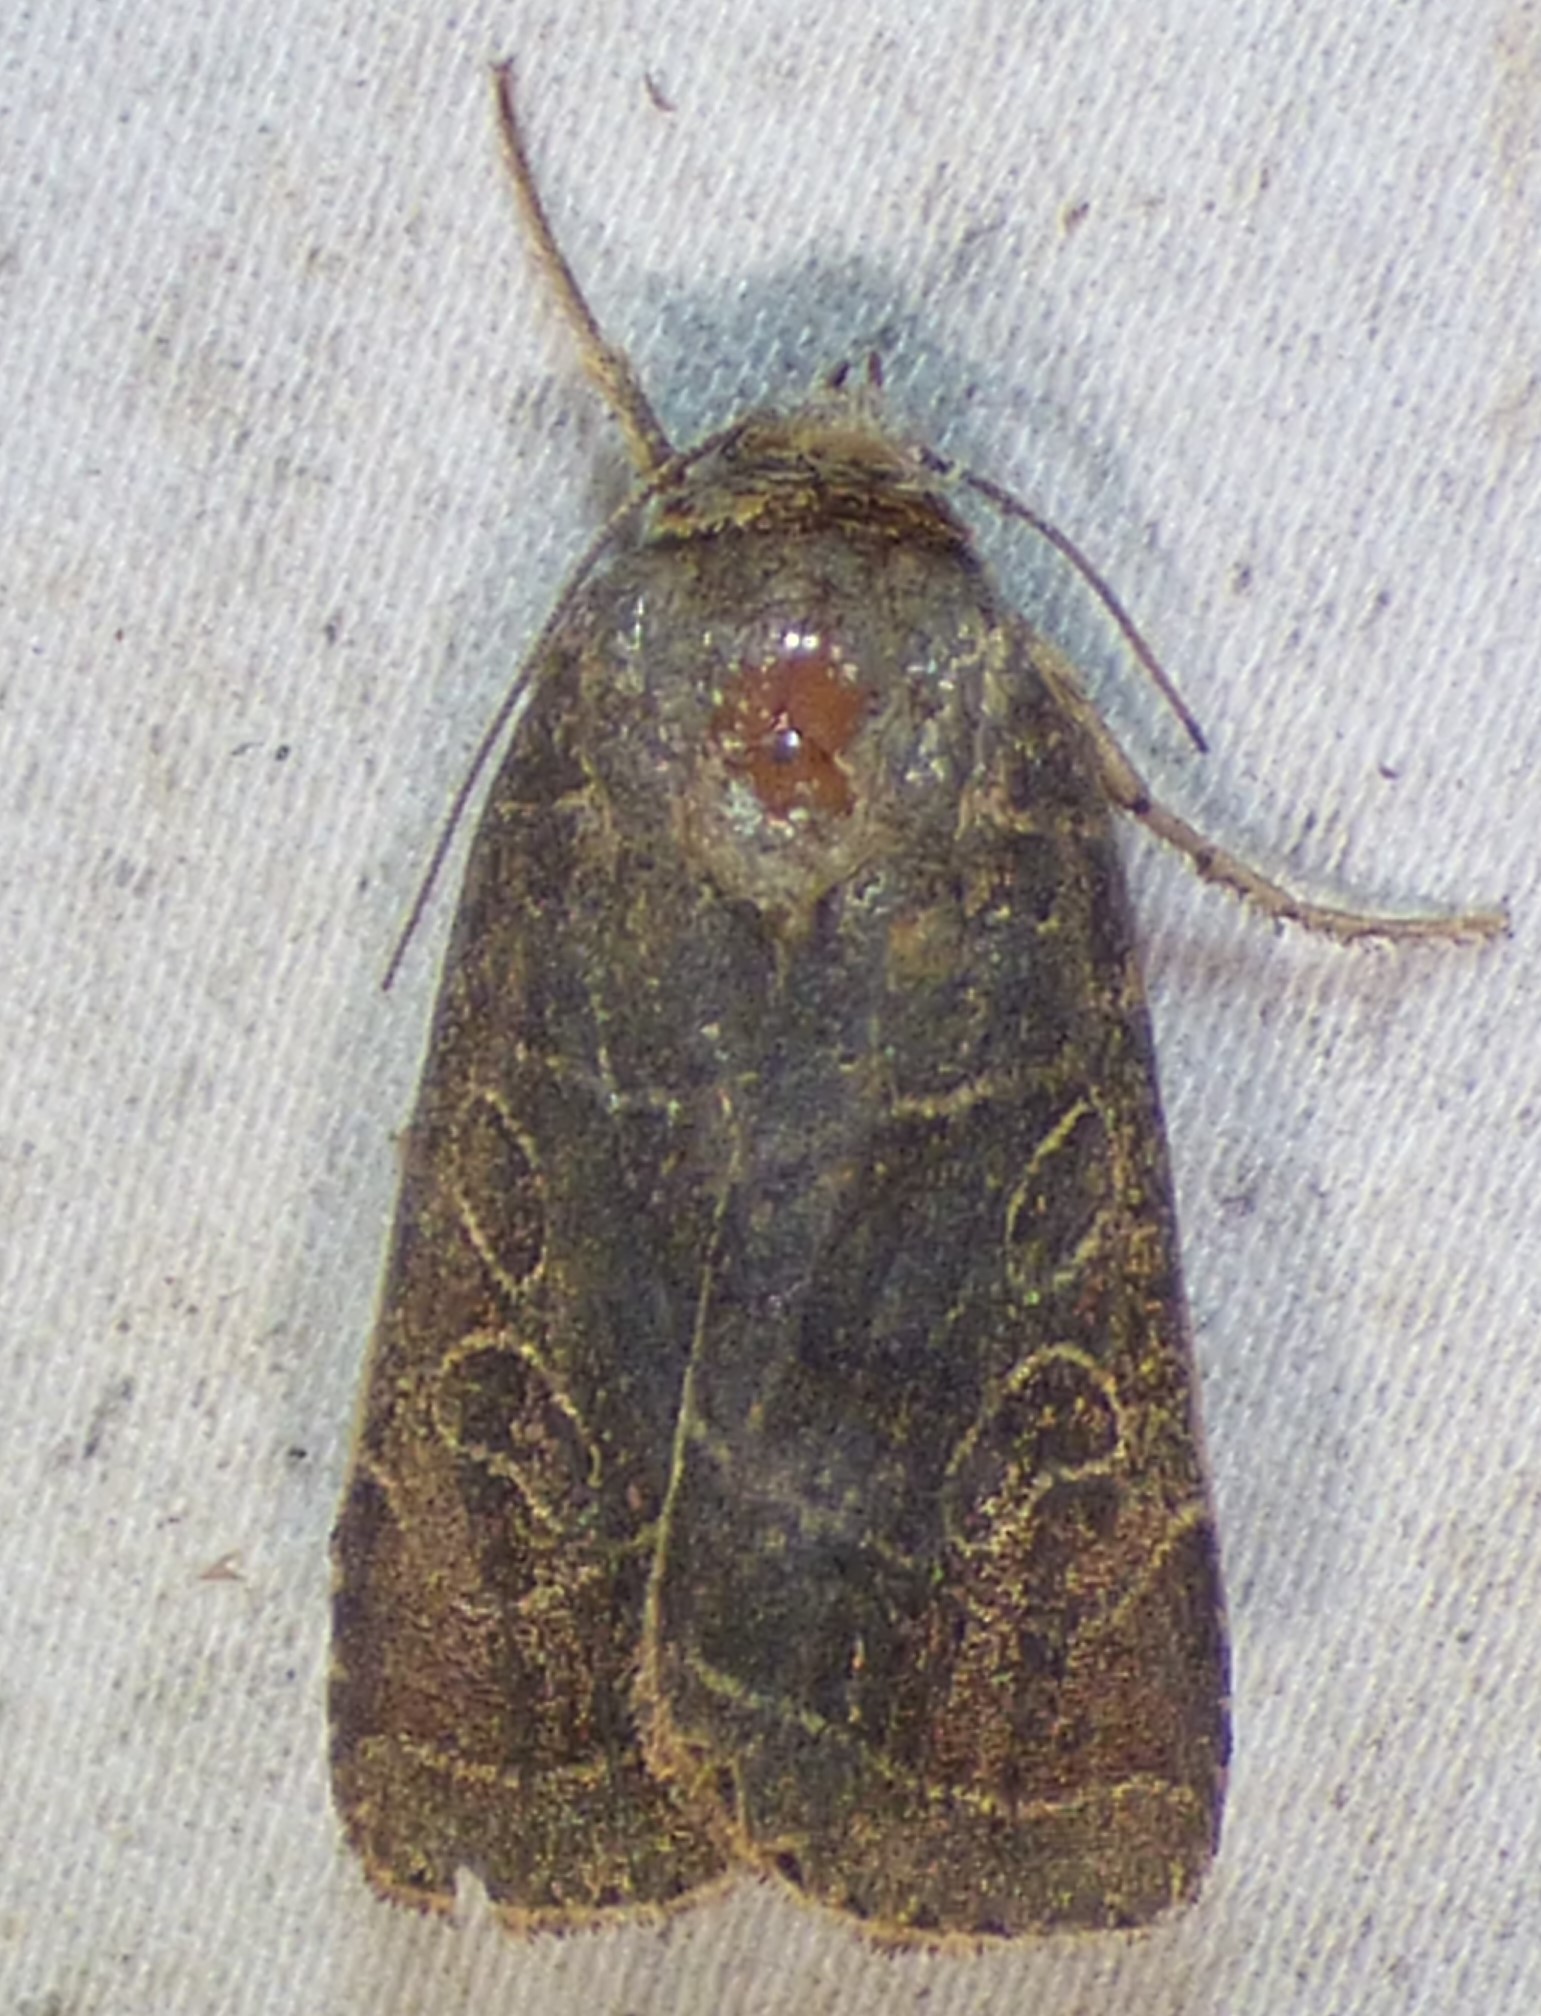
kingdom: Animalia
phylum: Arthropoda
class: Insecta
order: Lepidoptera
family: Noctuidae
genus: Orthodes
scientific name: Orthodes majuscula
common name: Rustic quaker
